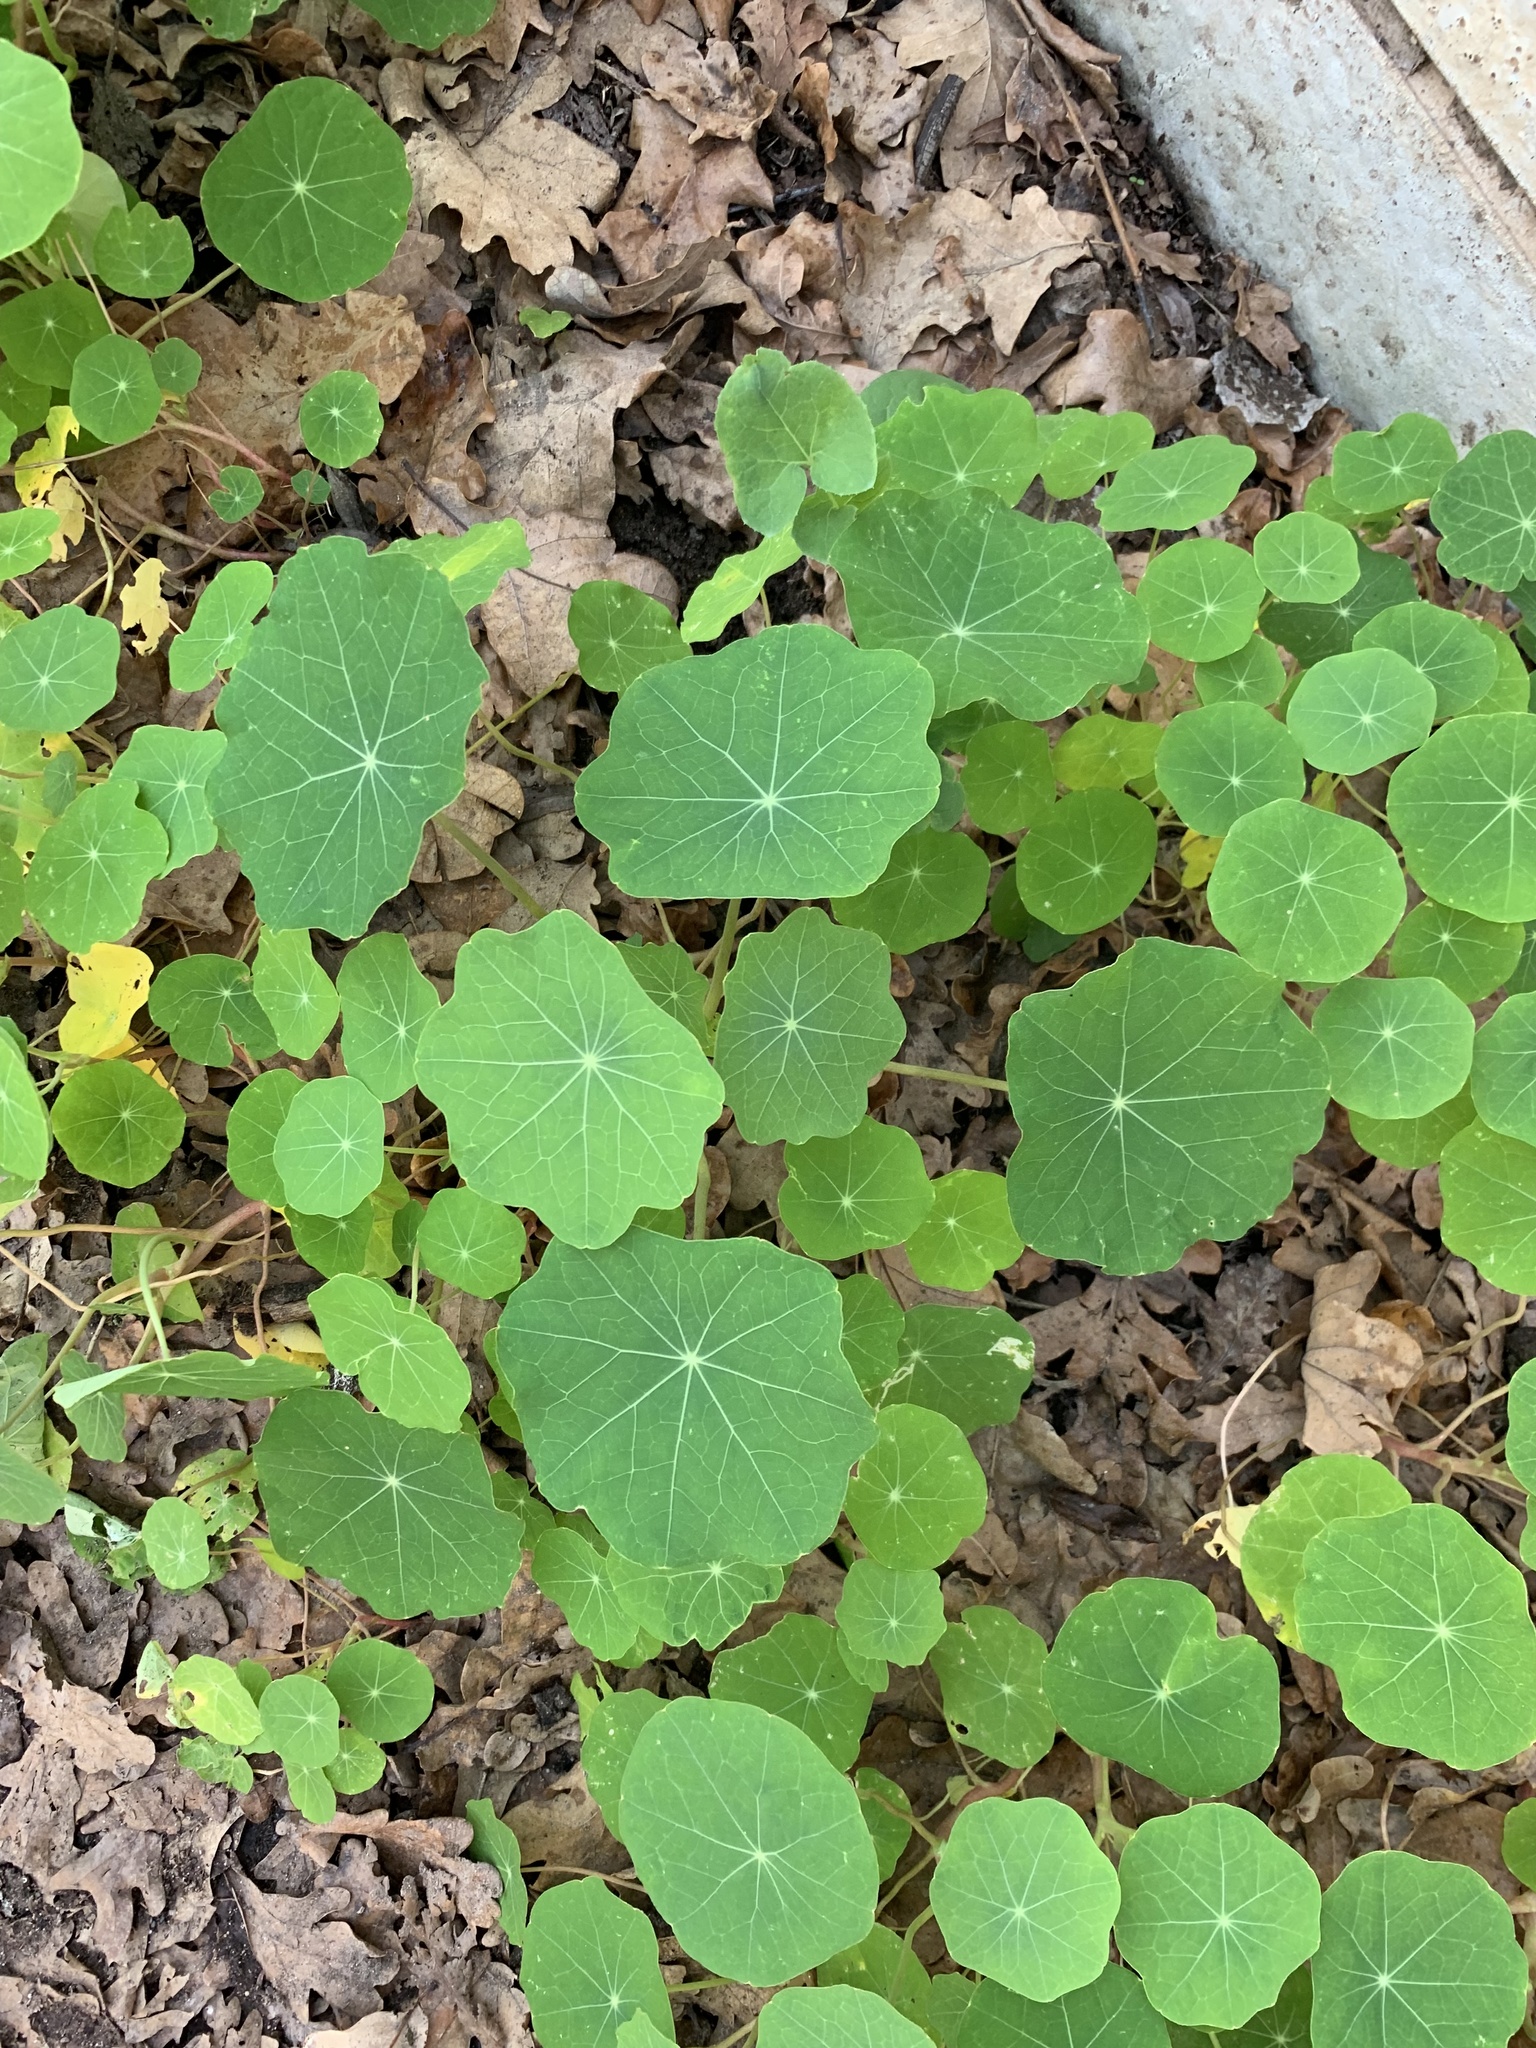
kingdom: Plantae
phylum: Tracheophyta
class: Magnoliopsida
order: Brassicales
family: Tropaeolaceae
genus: Tropaeolum
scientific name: Tropaeolum majus
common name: Nasturtium
